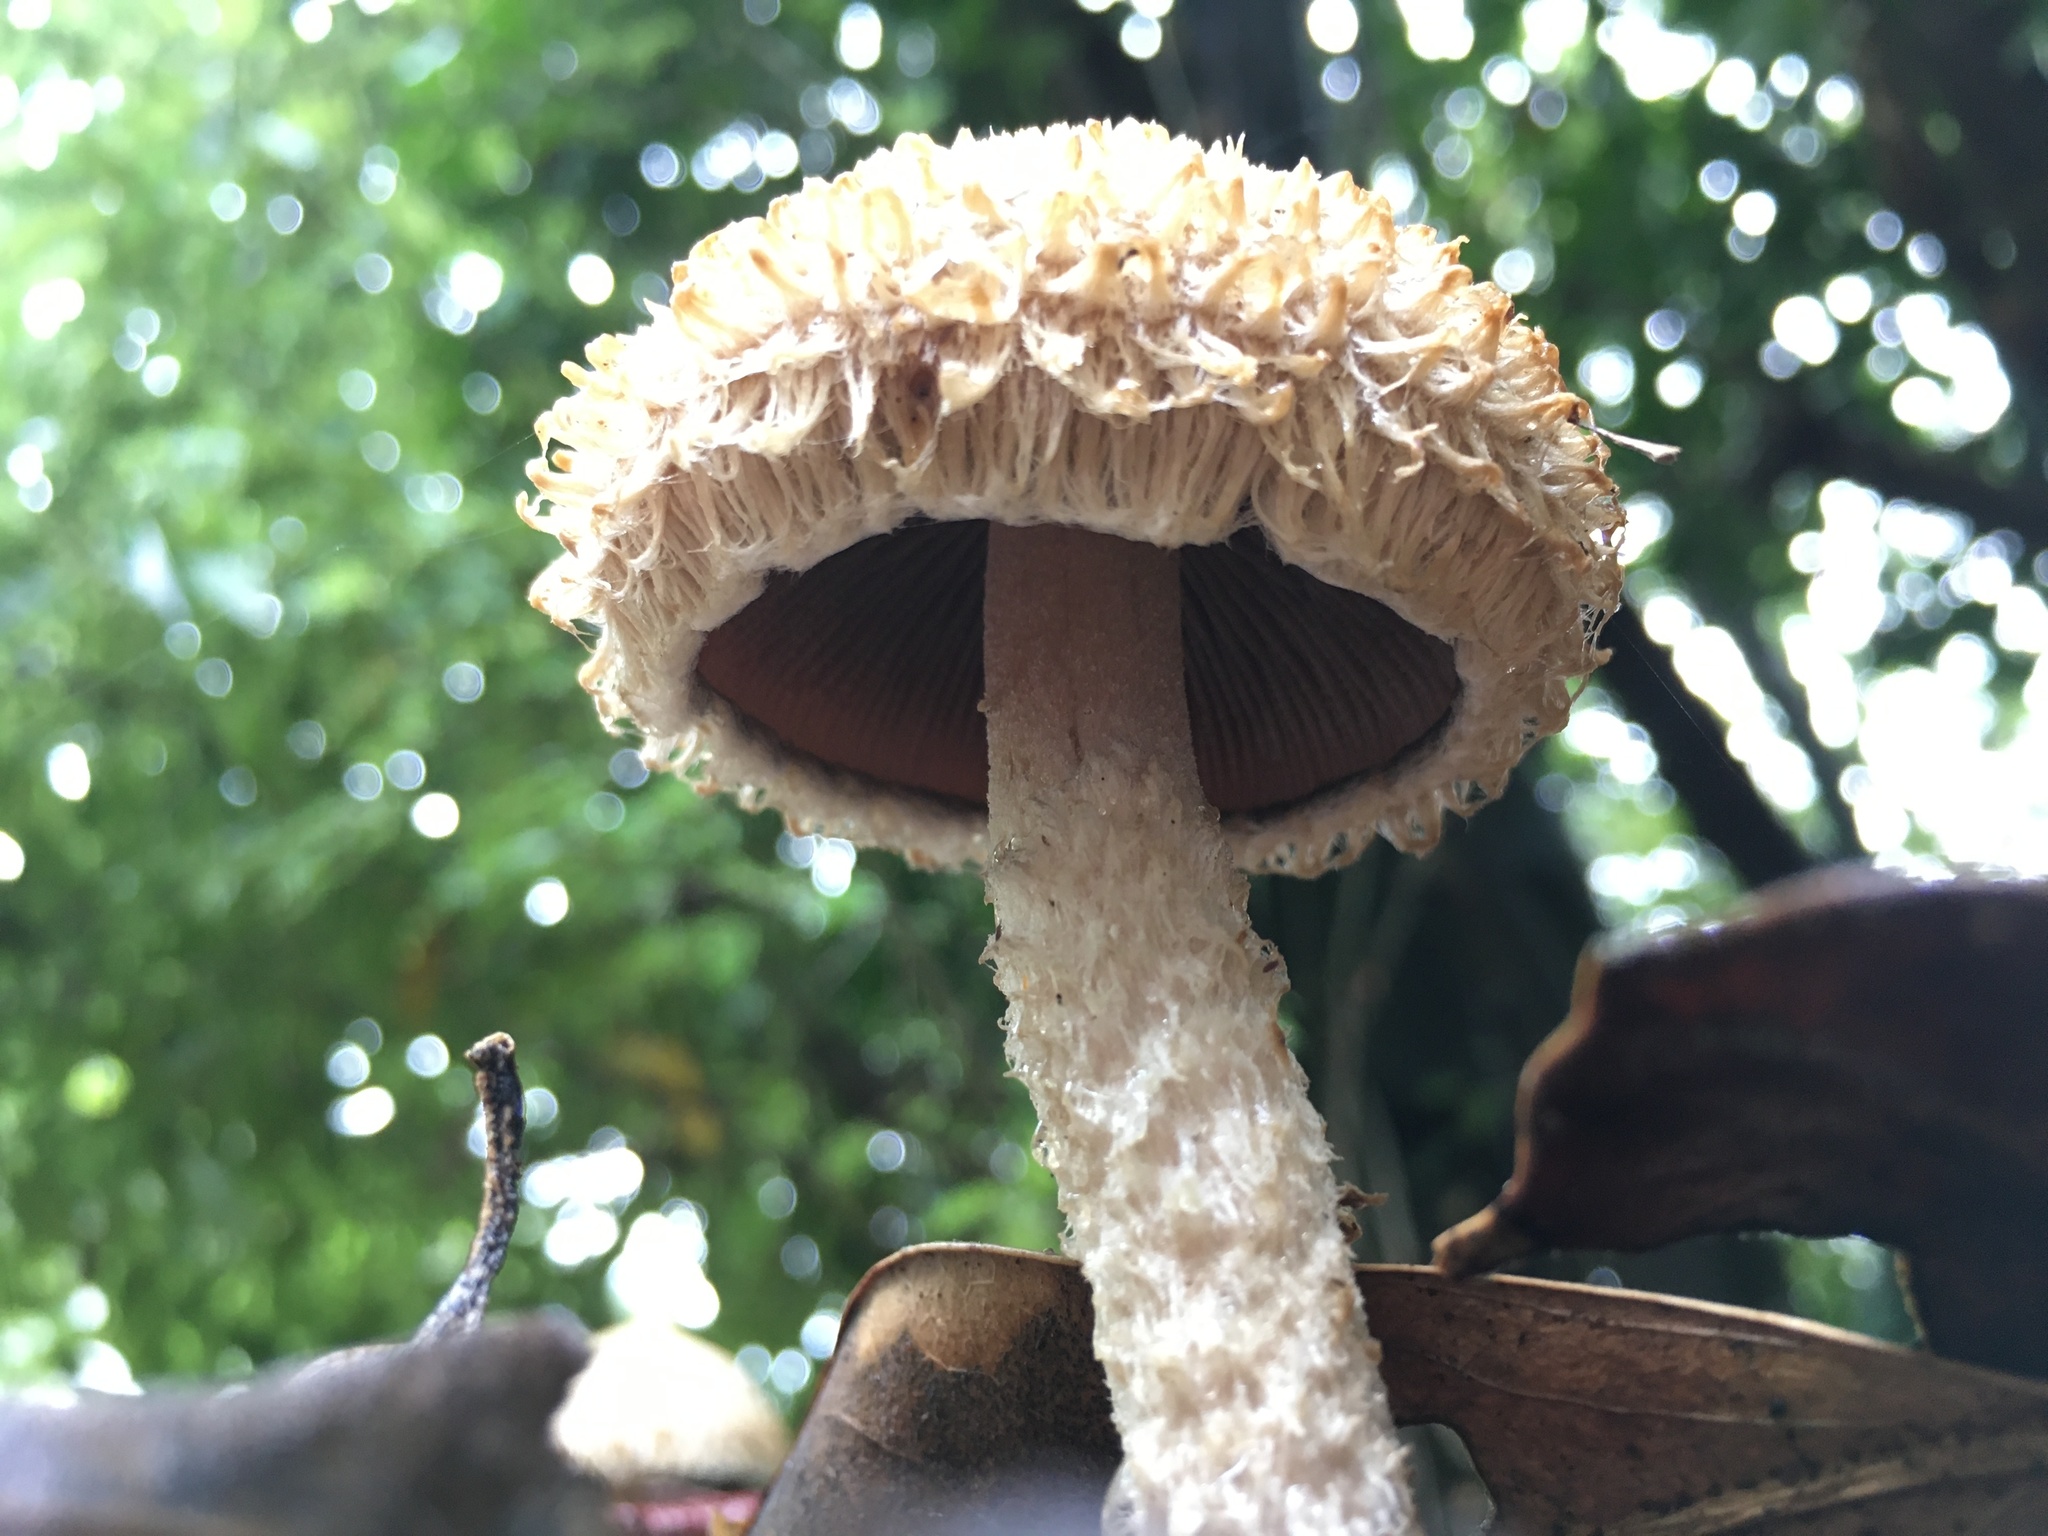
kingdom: Fungi
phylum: Basidiomycota
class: Agaricomycetes
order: Agaricales
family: Psathyrellaceae
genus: Psathyrella
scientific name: Psathyrella asperospora
